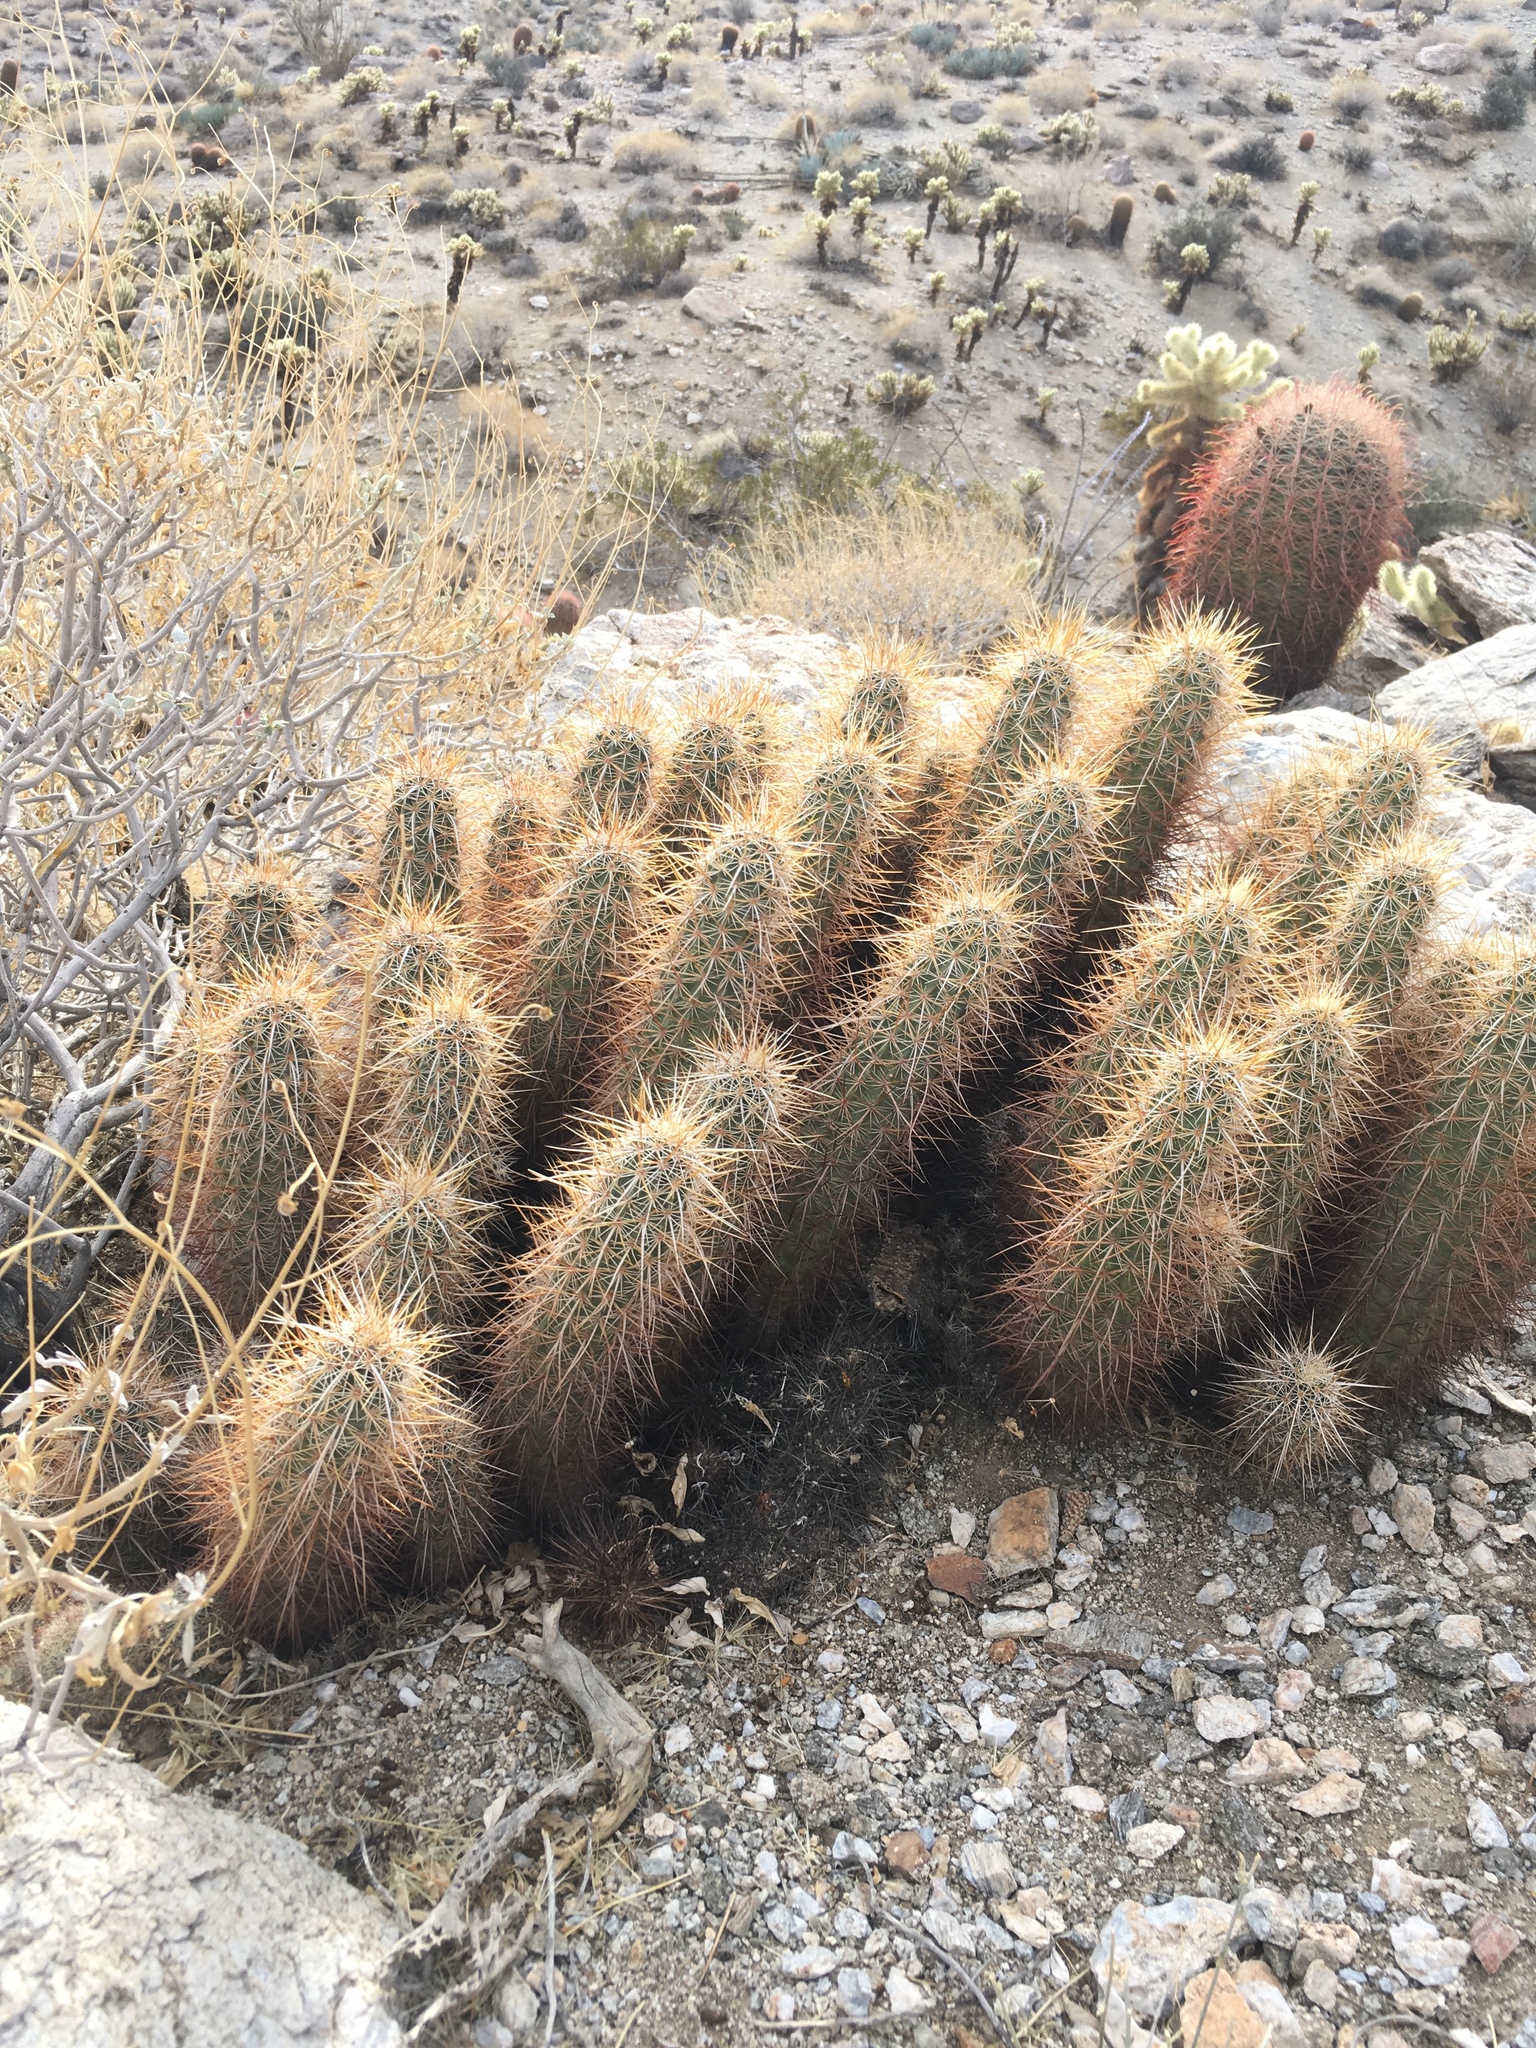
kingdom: Plantae
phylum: Tracheophyta
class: Magnoliopsida
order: Caryophyllales
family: Cactaceae
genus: Echinocereus
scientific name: Echinocereus engelmannii
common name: Engelmann's hedgehog cactus
